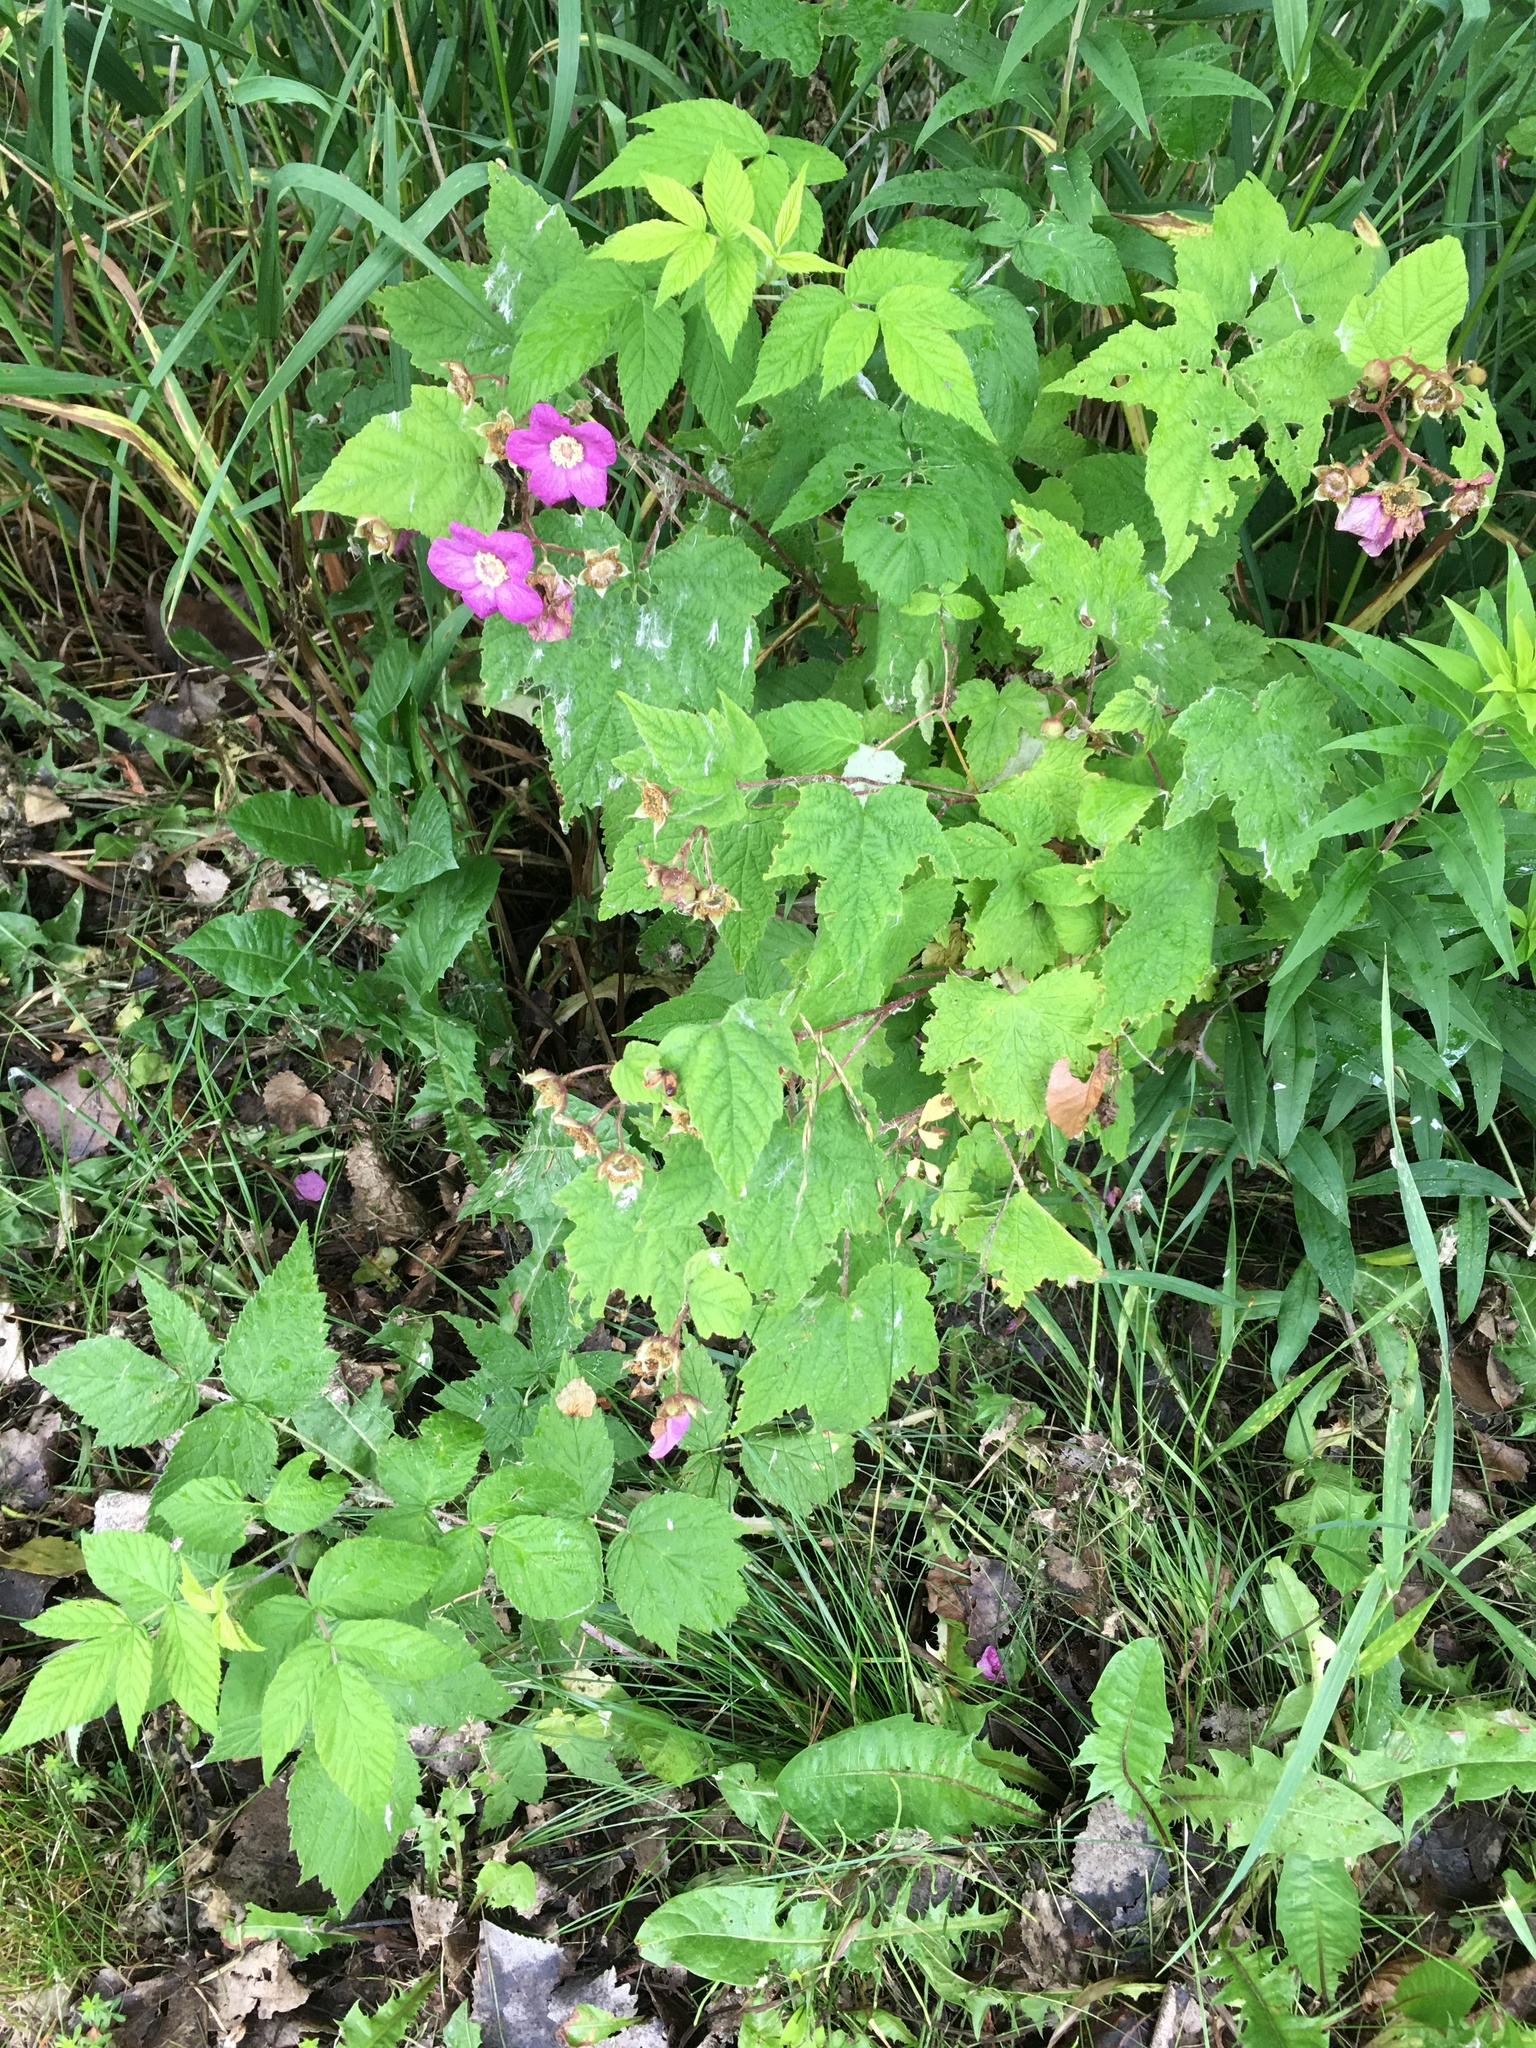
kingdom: Plantae
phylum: Tracheophyta
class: Magnoliopsida
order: Rosales
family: Rosaceae
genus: Rubus
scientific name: Rubus odoratus
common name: Purple-flowered raspberry
